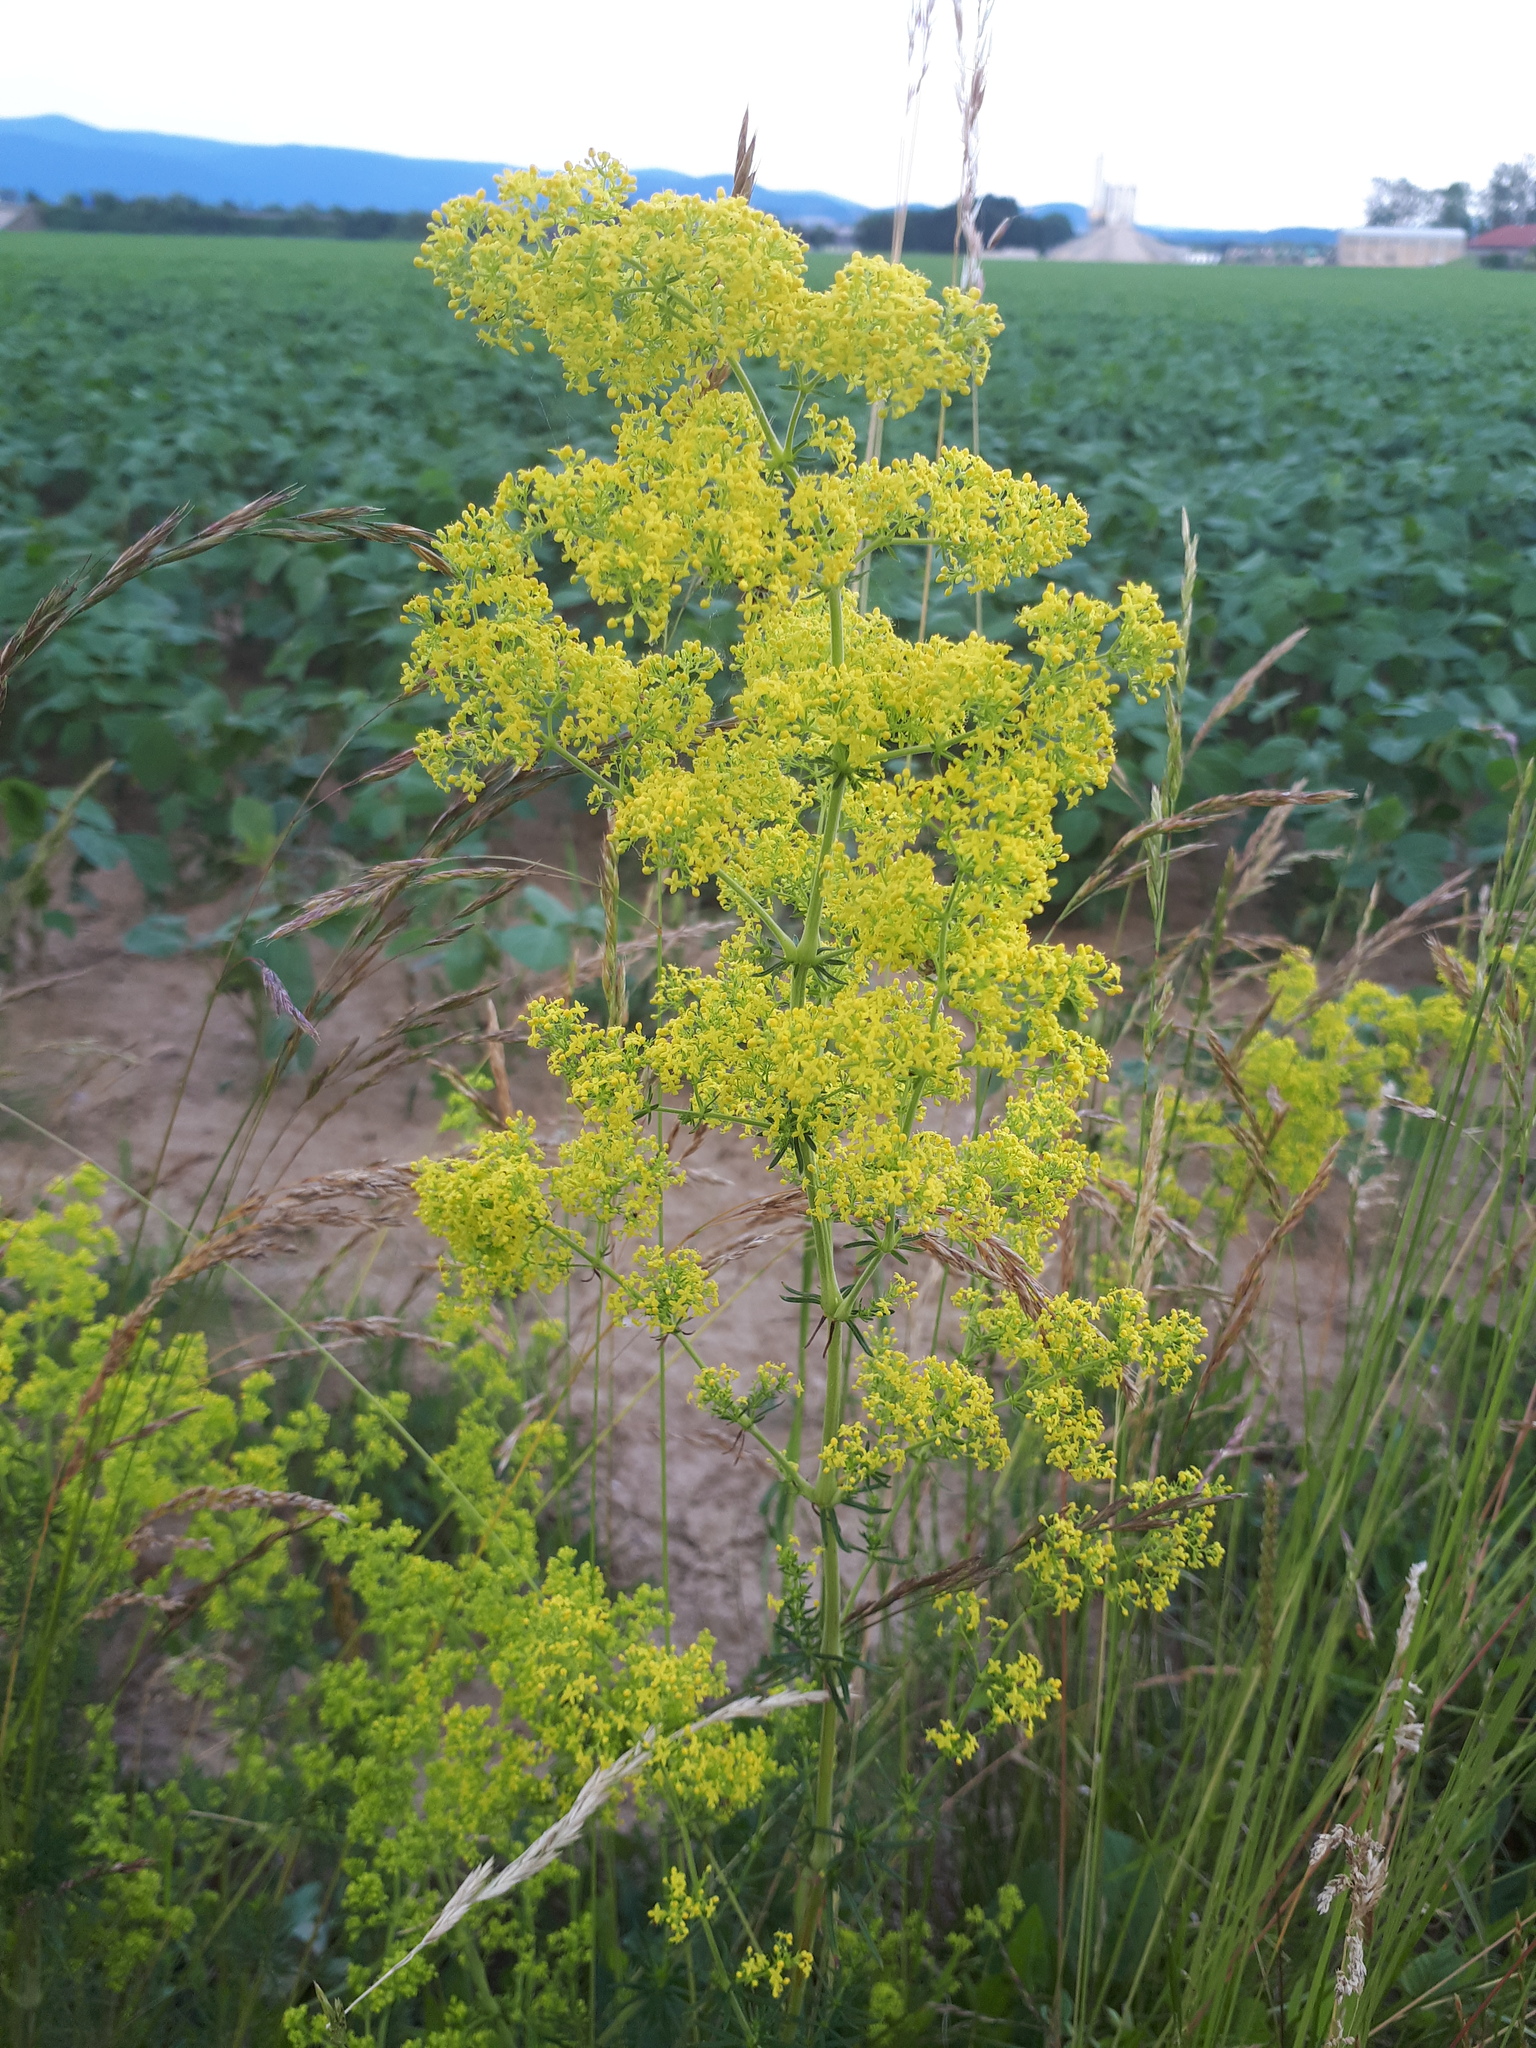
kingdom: Plantae
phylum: Tracheophyta
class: Magnoliopsida
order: Gentianales
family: Rubiaceae
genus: Galium
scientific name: Galium verum
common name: Lady's bedstraw
